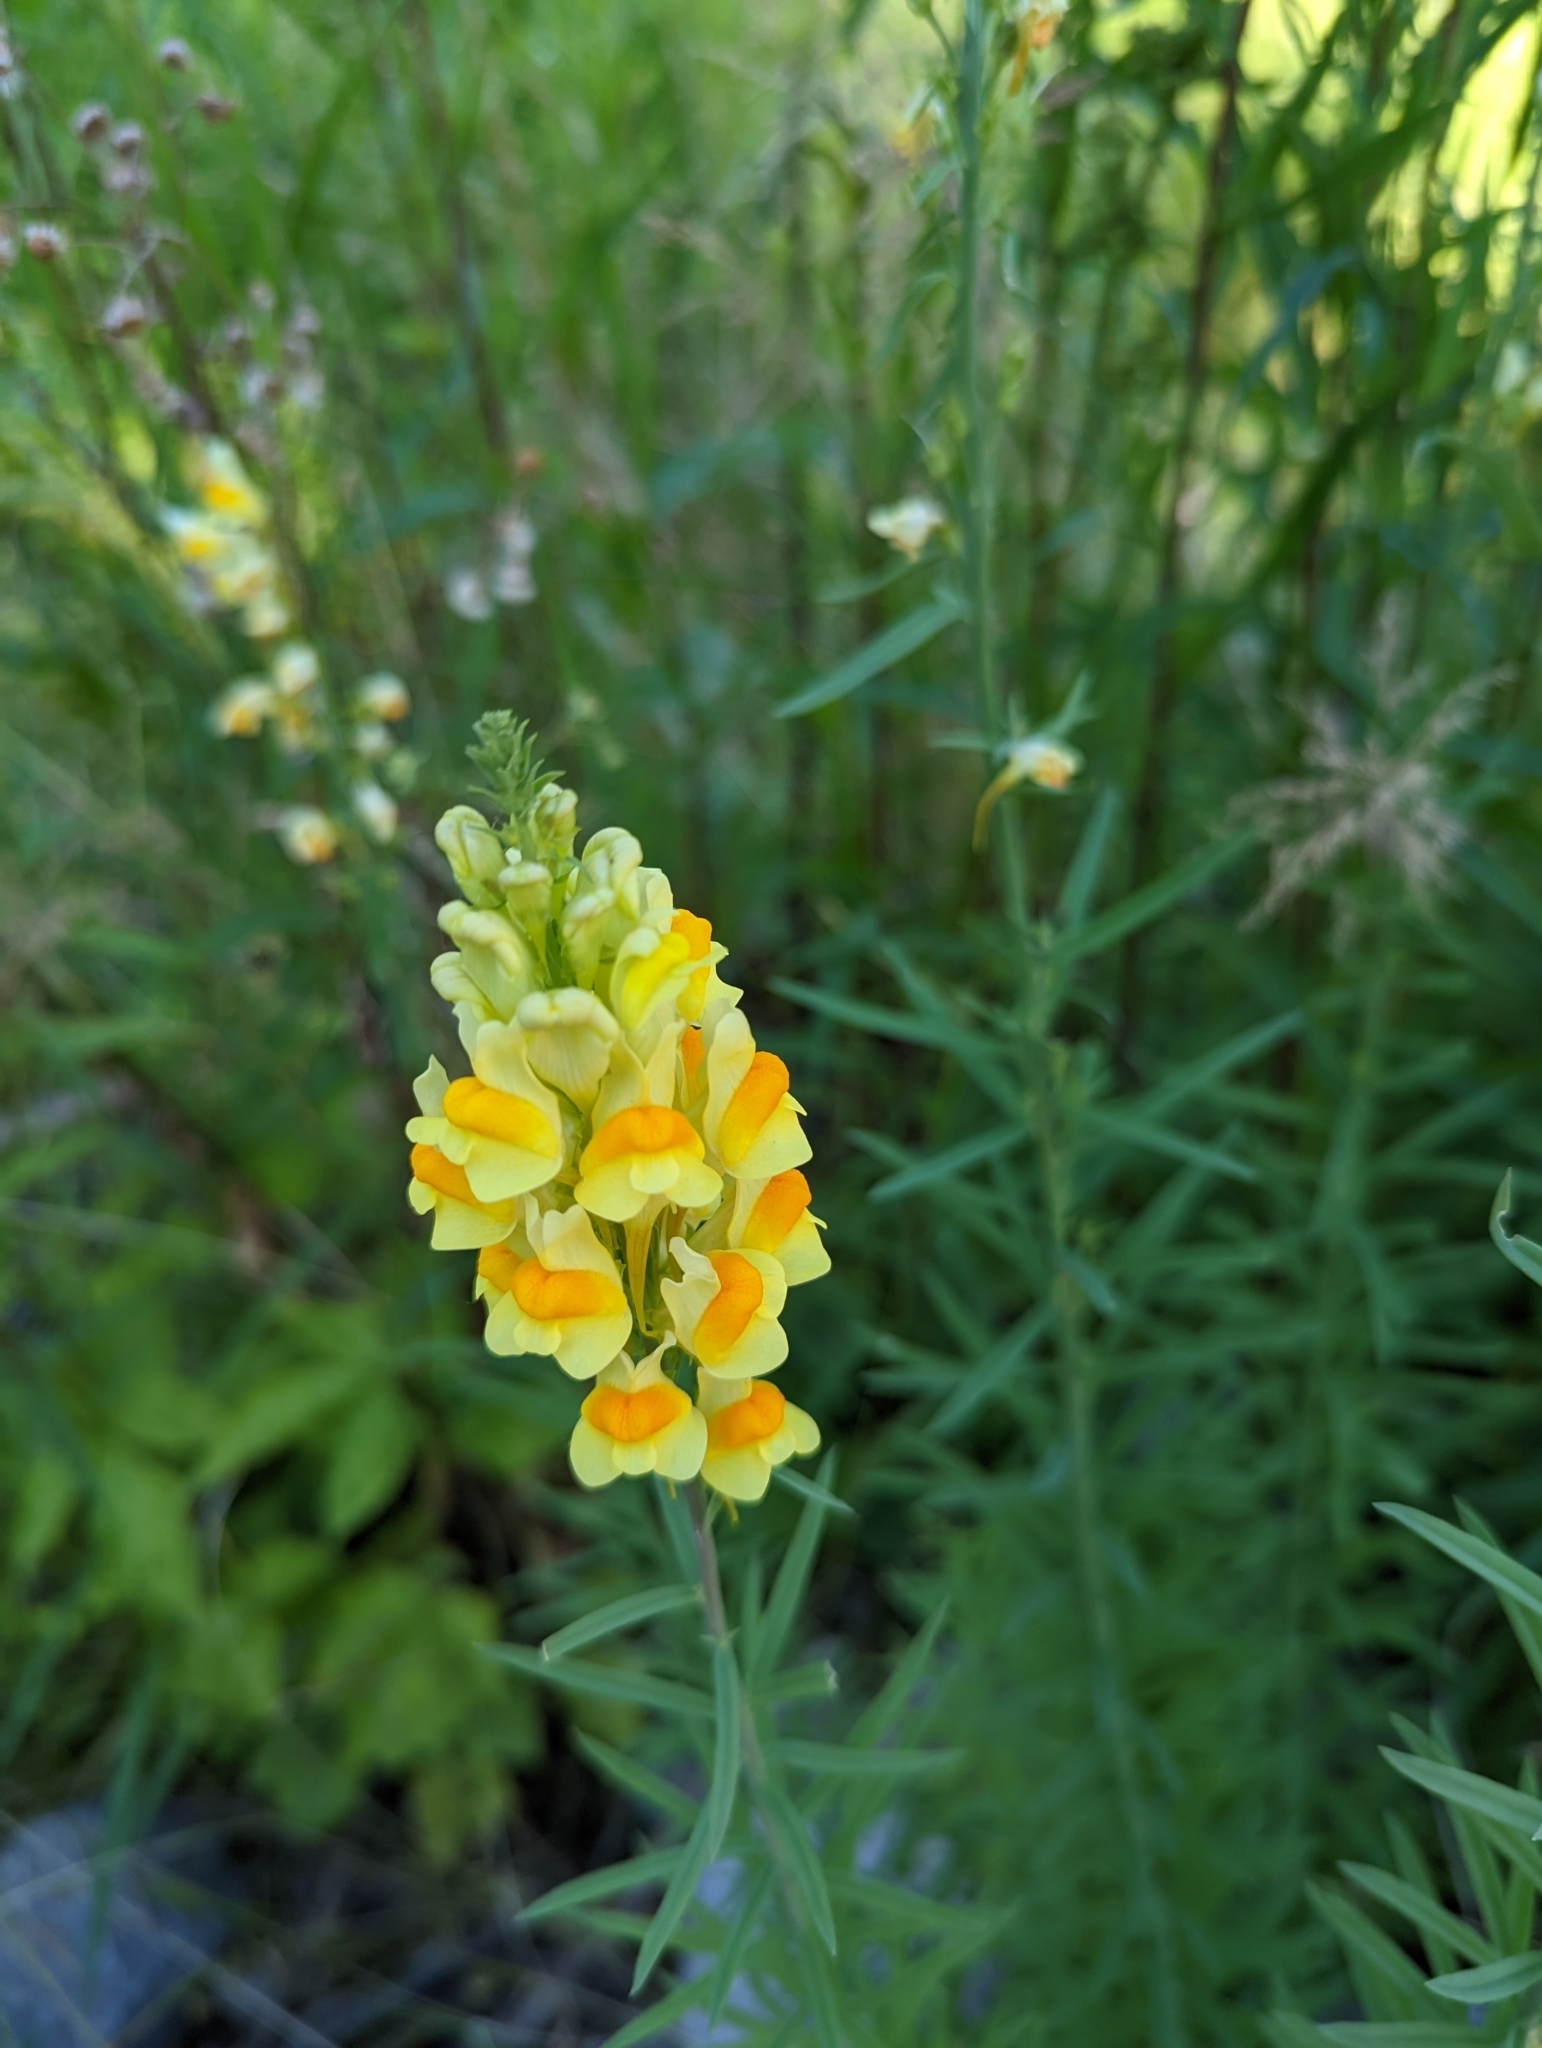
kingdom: Plantae
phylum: Tracheophyta
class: Magnoliopsida
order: Lamiales
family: Plantaginaceae
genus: Linaria
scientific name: Linaria vulgaris
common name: Butter and eggs
